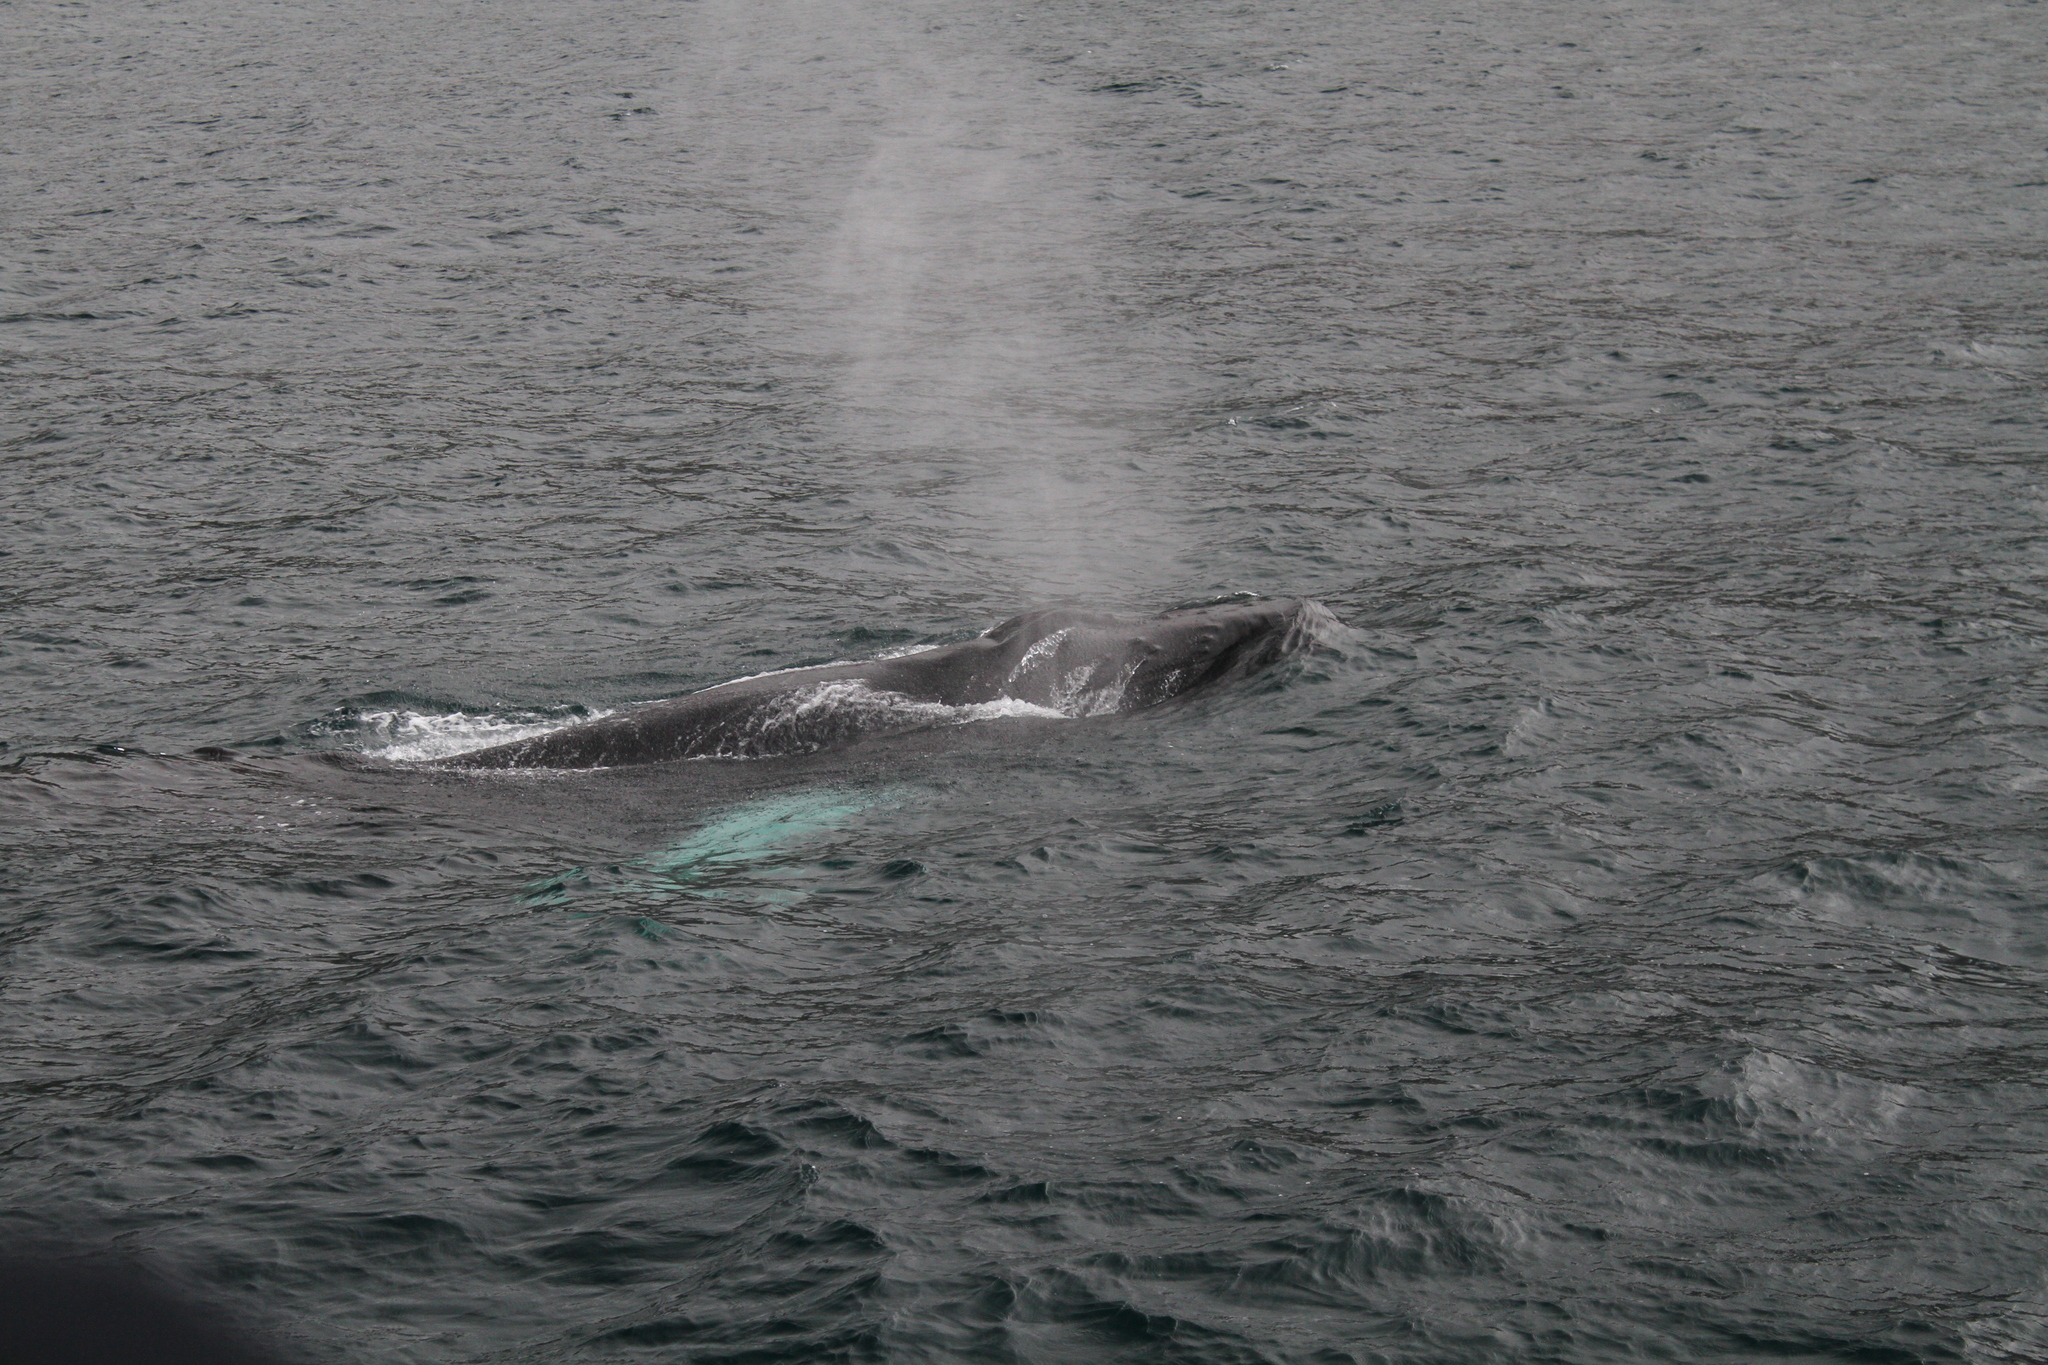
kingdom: Animalia
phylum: Chordata
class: Mammalia
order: Cetacea
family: Balaenopteridae
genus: Megaptera
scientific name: Megaptera novaeangliae
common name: Humpback whale
